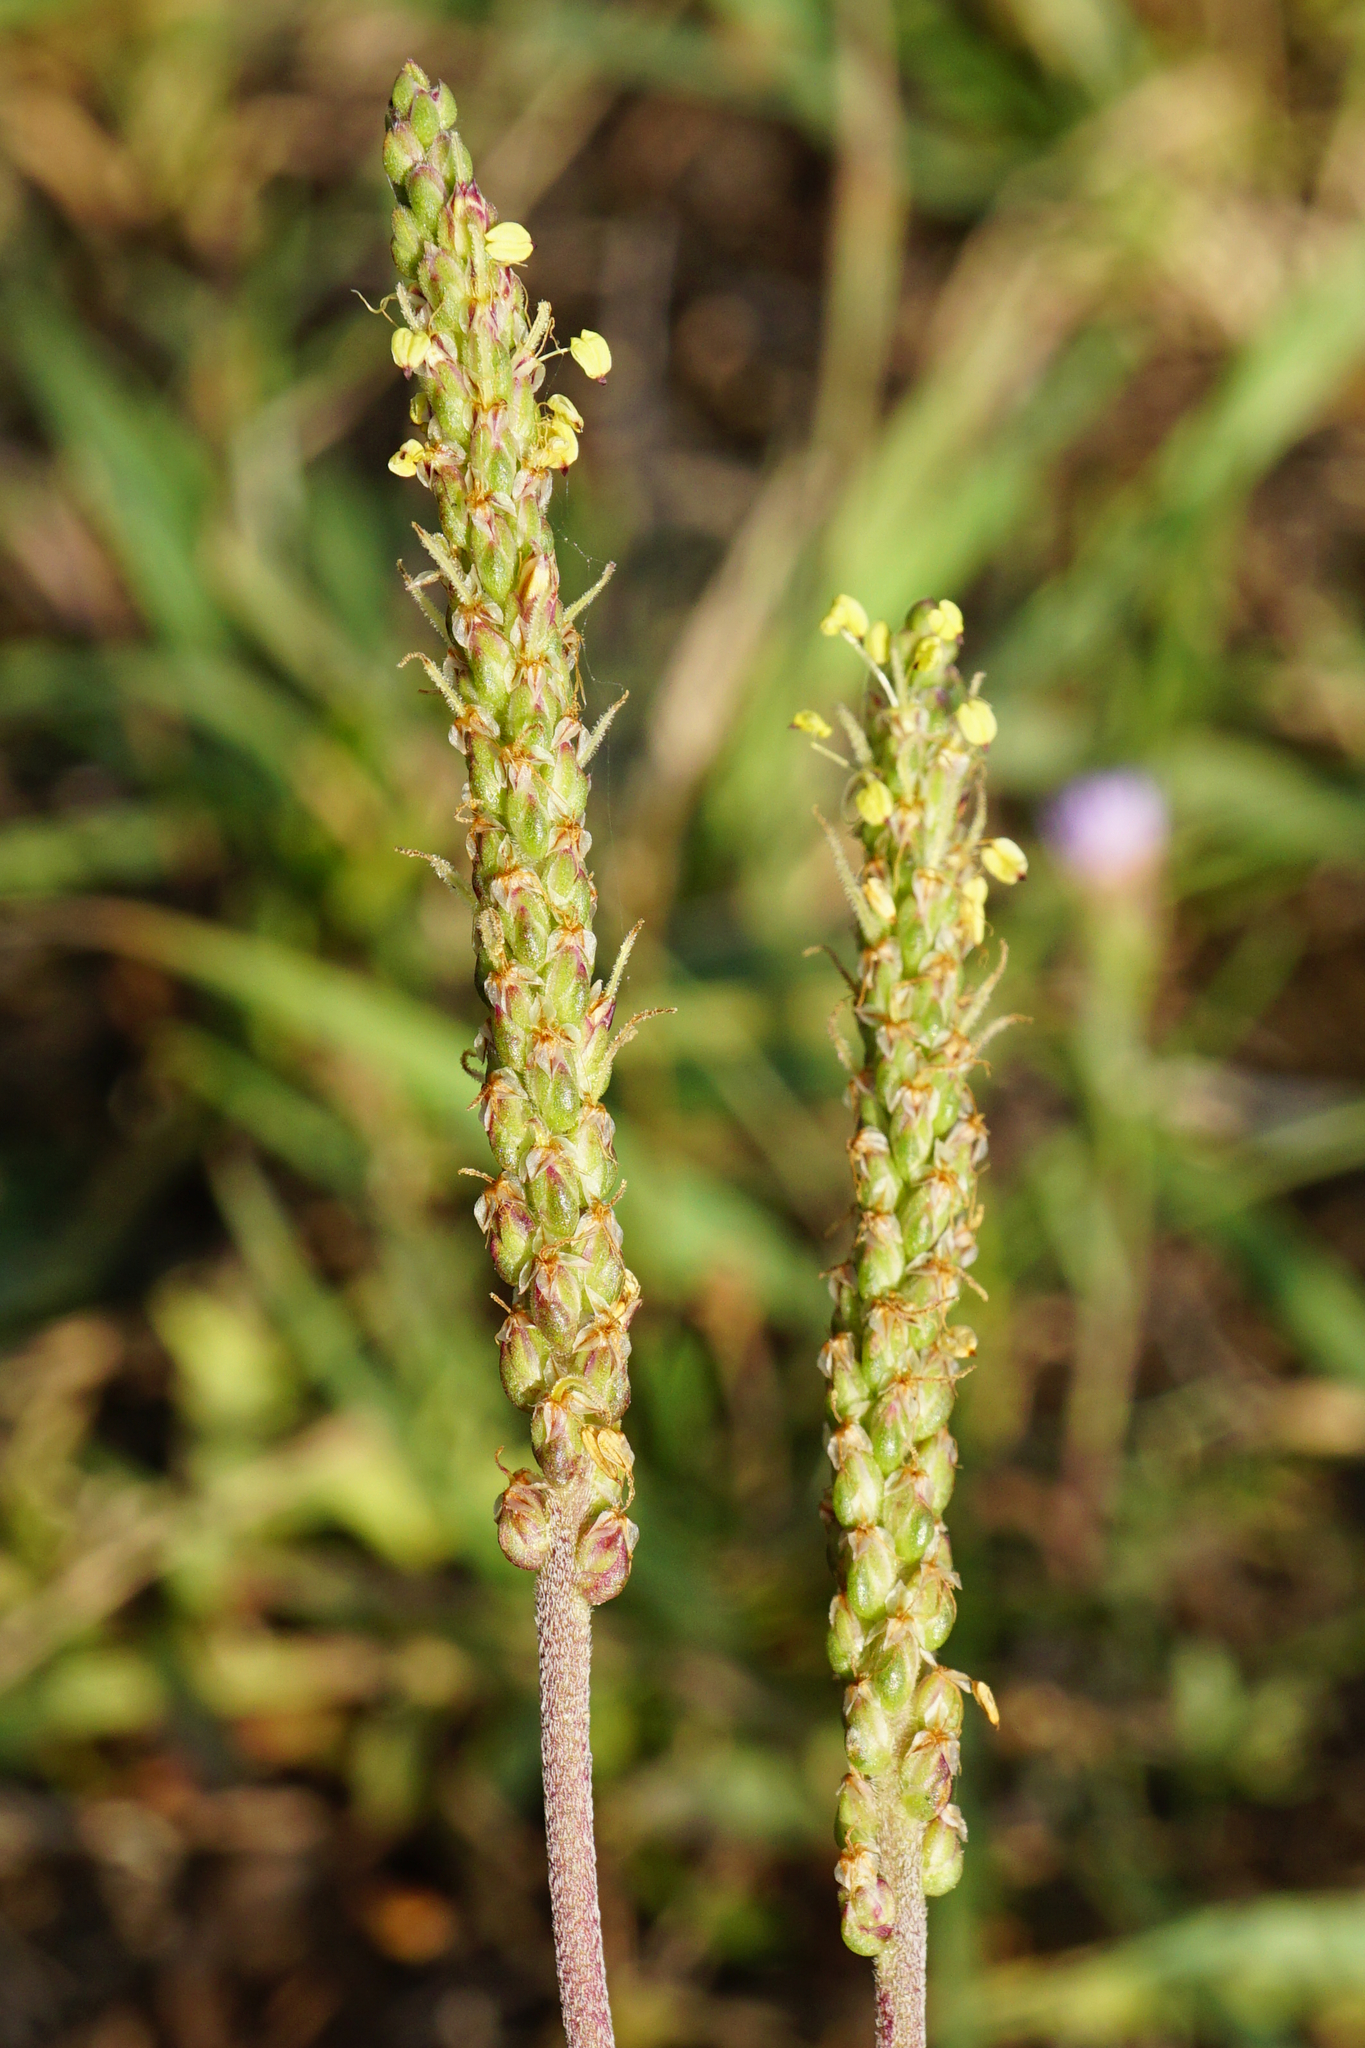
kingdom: Plantae
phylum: Tracheophyta
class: Magnoliopsida
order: Lamiales
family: Plantaginaceae
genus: Plantago
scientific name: Plantago maritima
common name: Sea plantain
